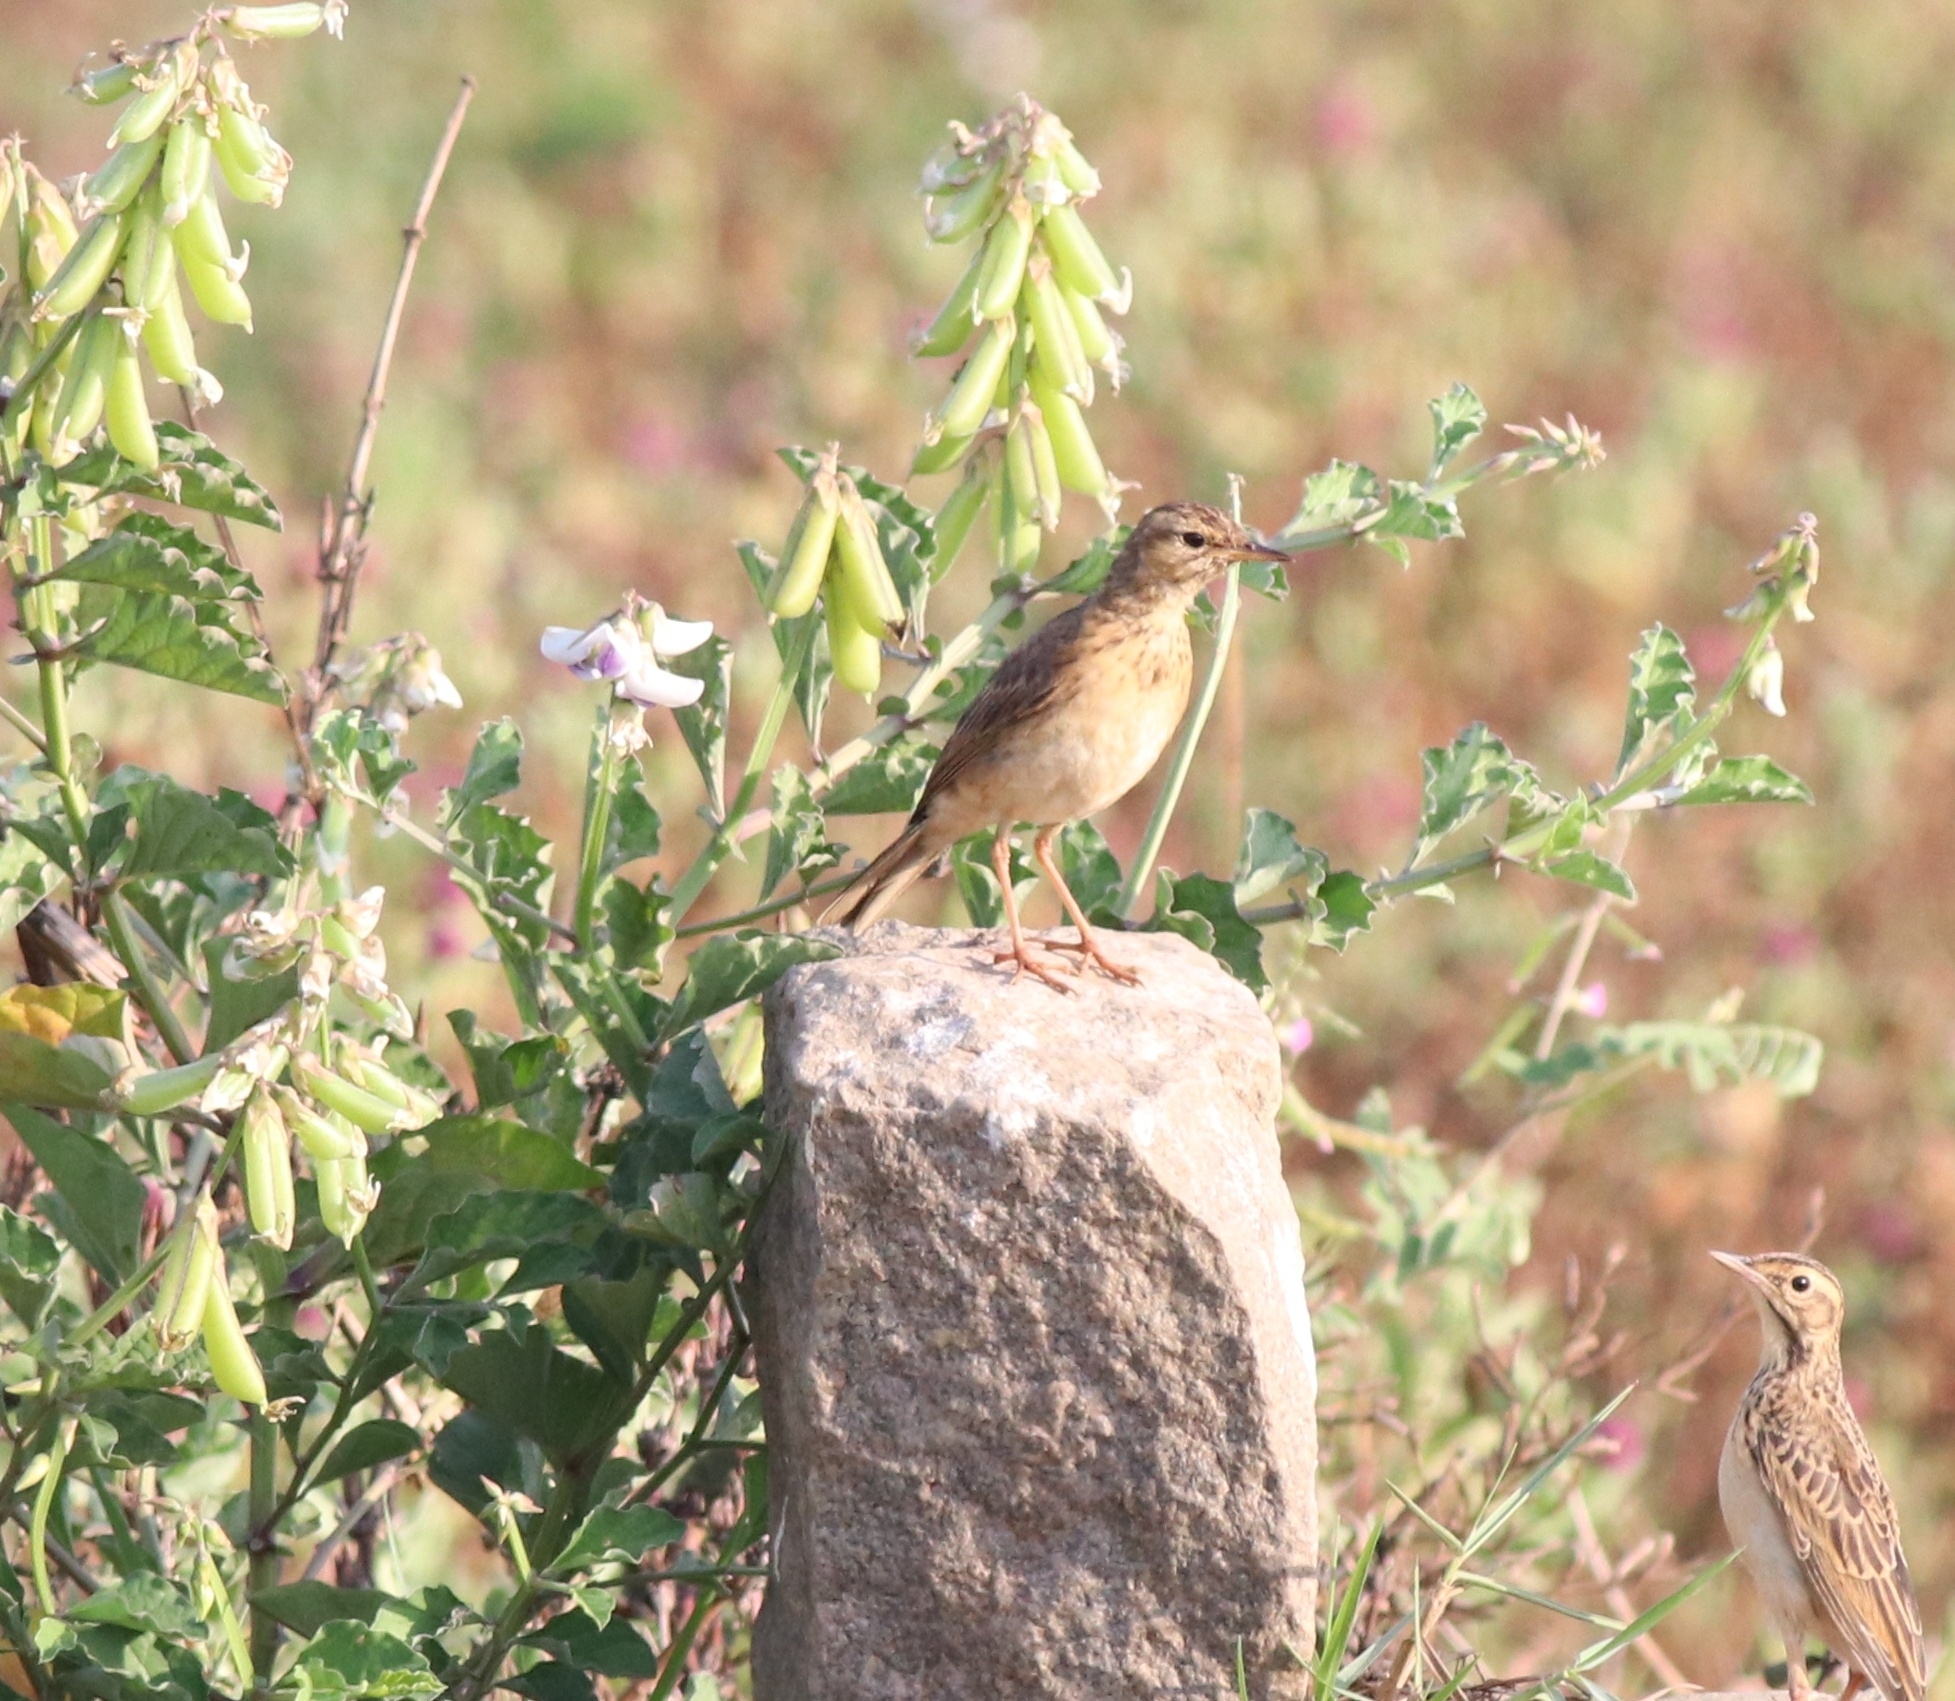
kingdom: Animalia
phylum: Chordata
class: Aves
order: Passeriformes
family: Motacillidae
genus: Anthus
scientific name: Anthus rufulus
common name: Paddyfield pipit
